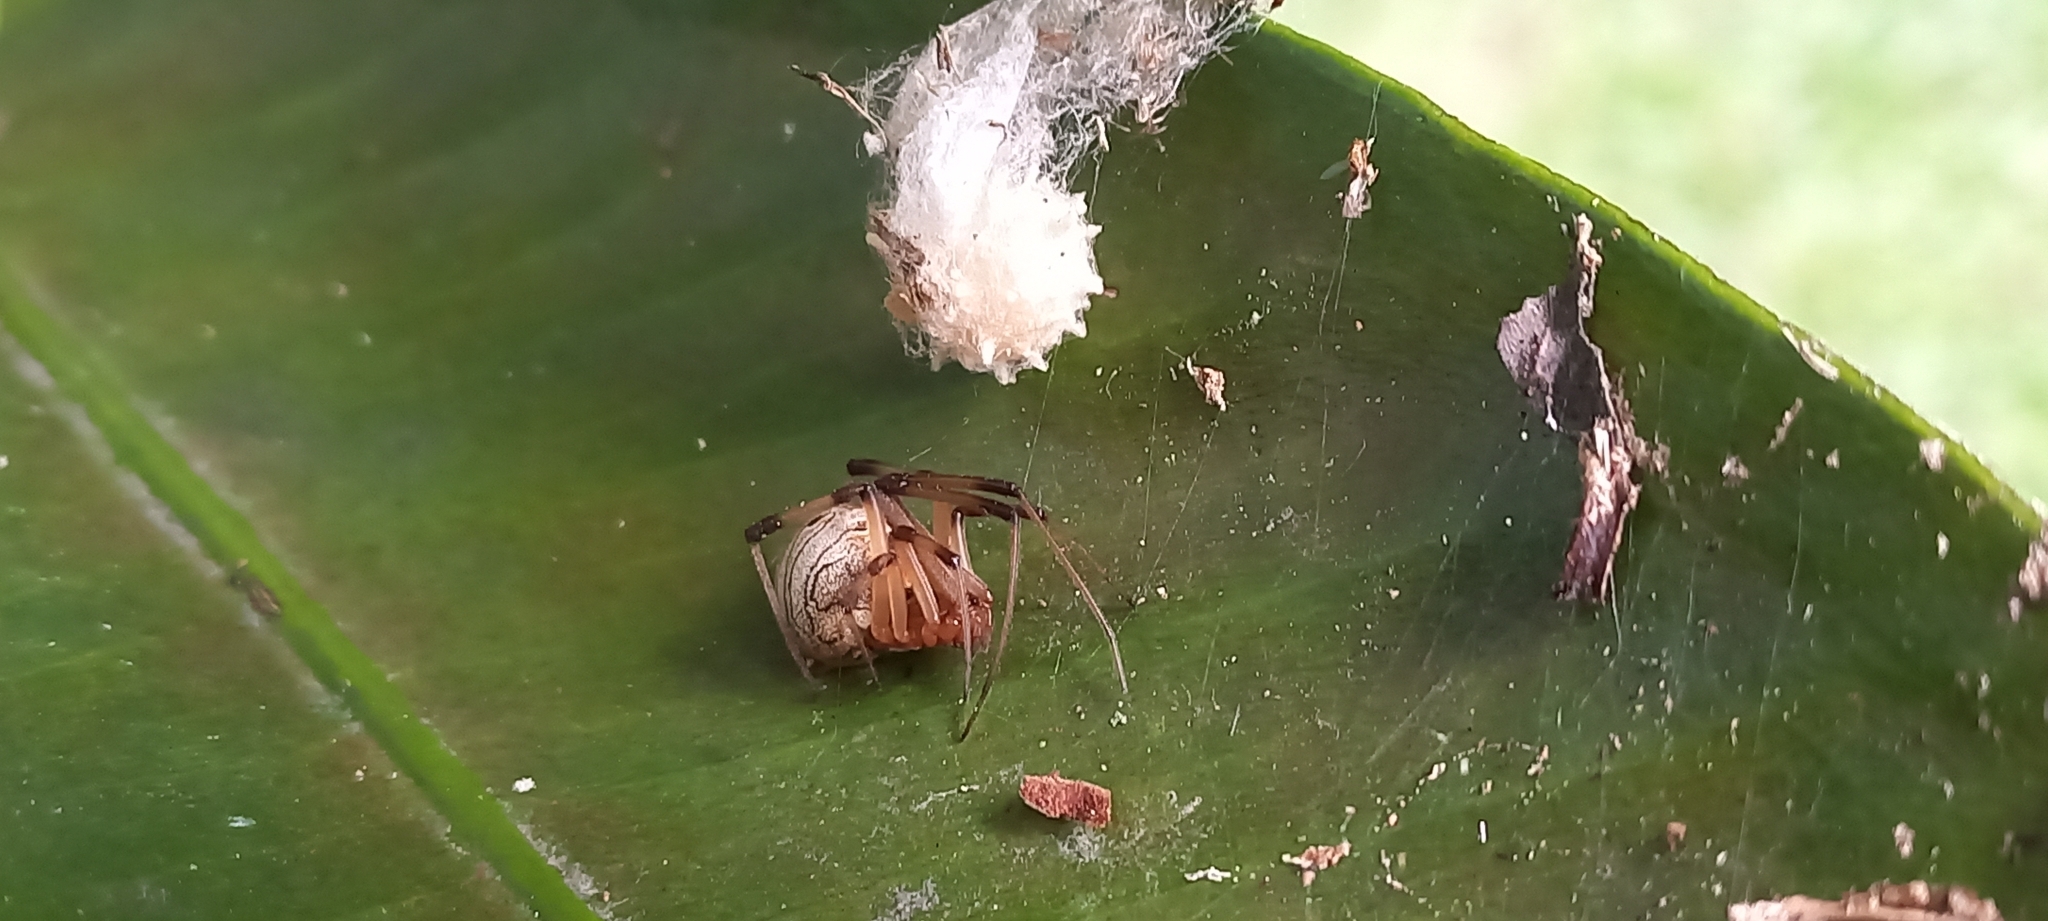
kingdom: Animalia
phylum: Arthropoda
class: Arachnida
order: Araneae
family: Theridiidae
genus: Latrodectus
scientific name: Latrodectus geometricus
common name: Brown widow spider
